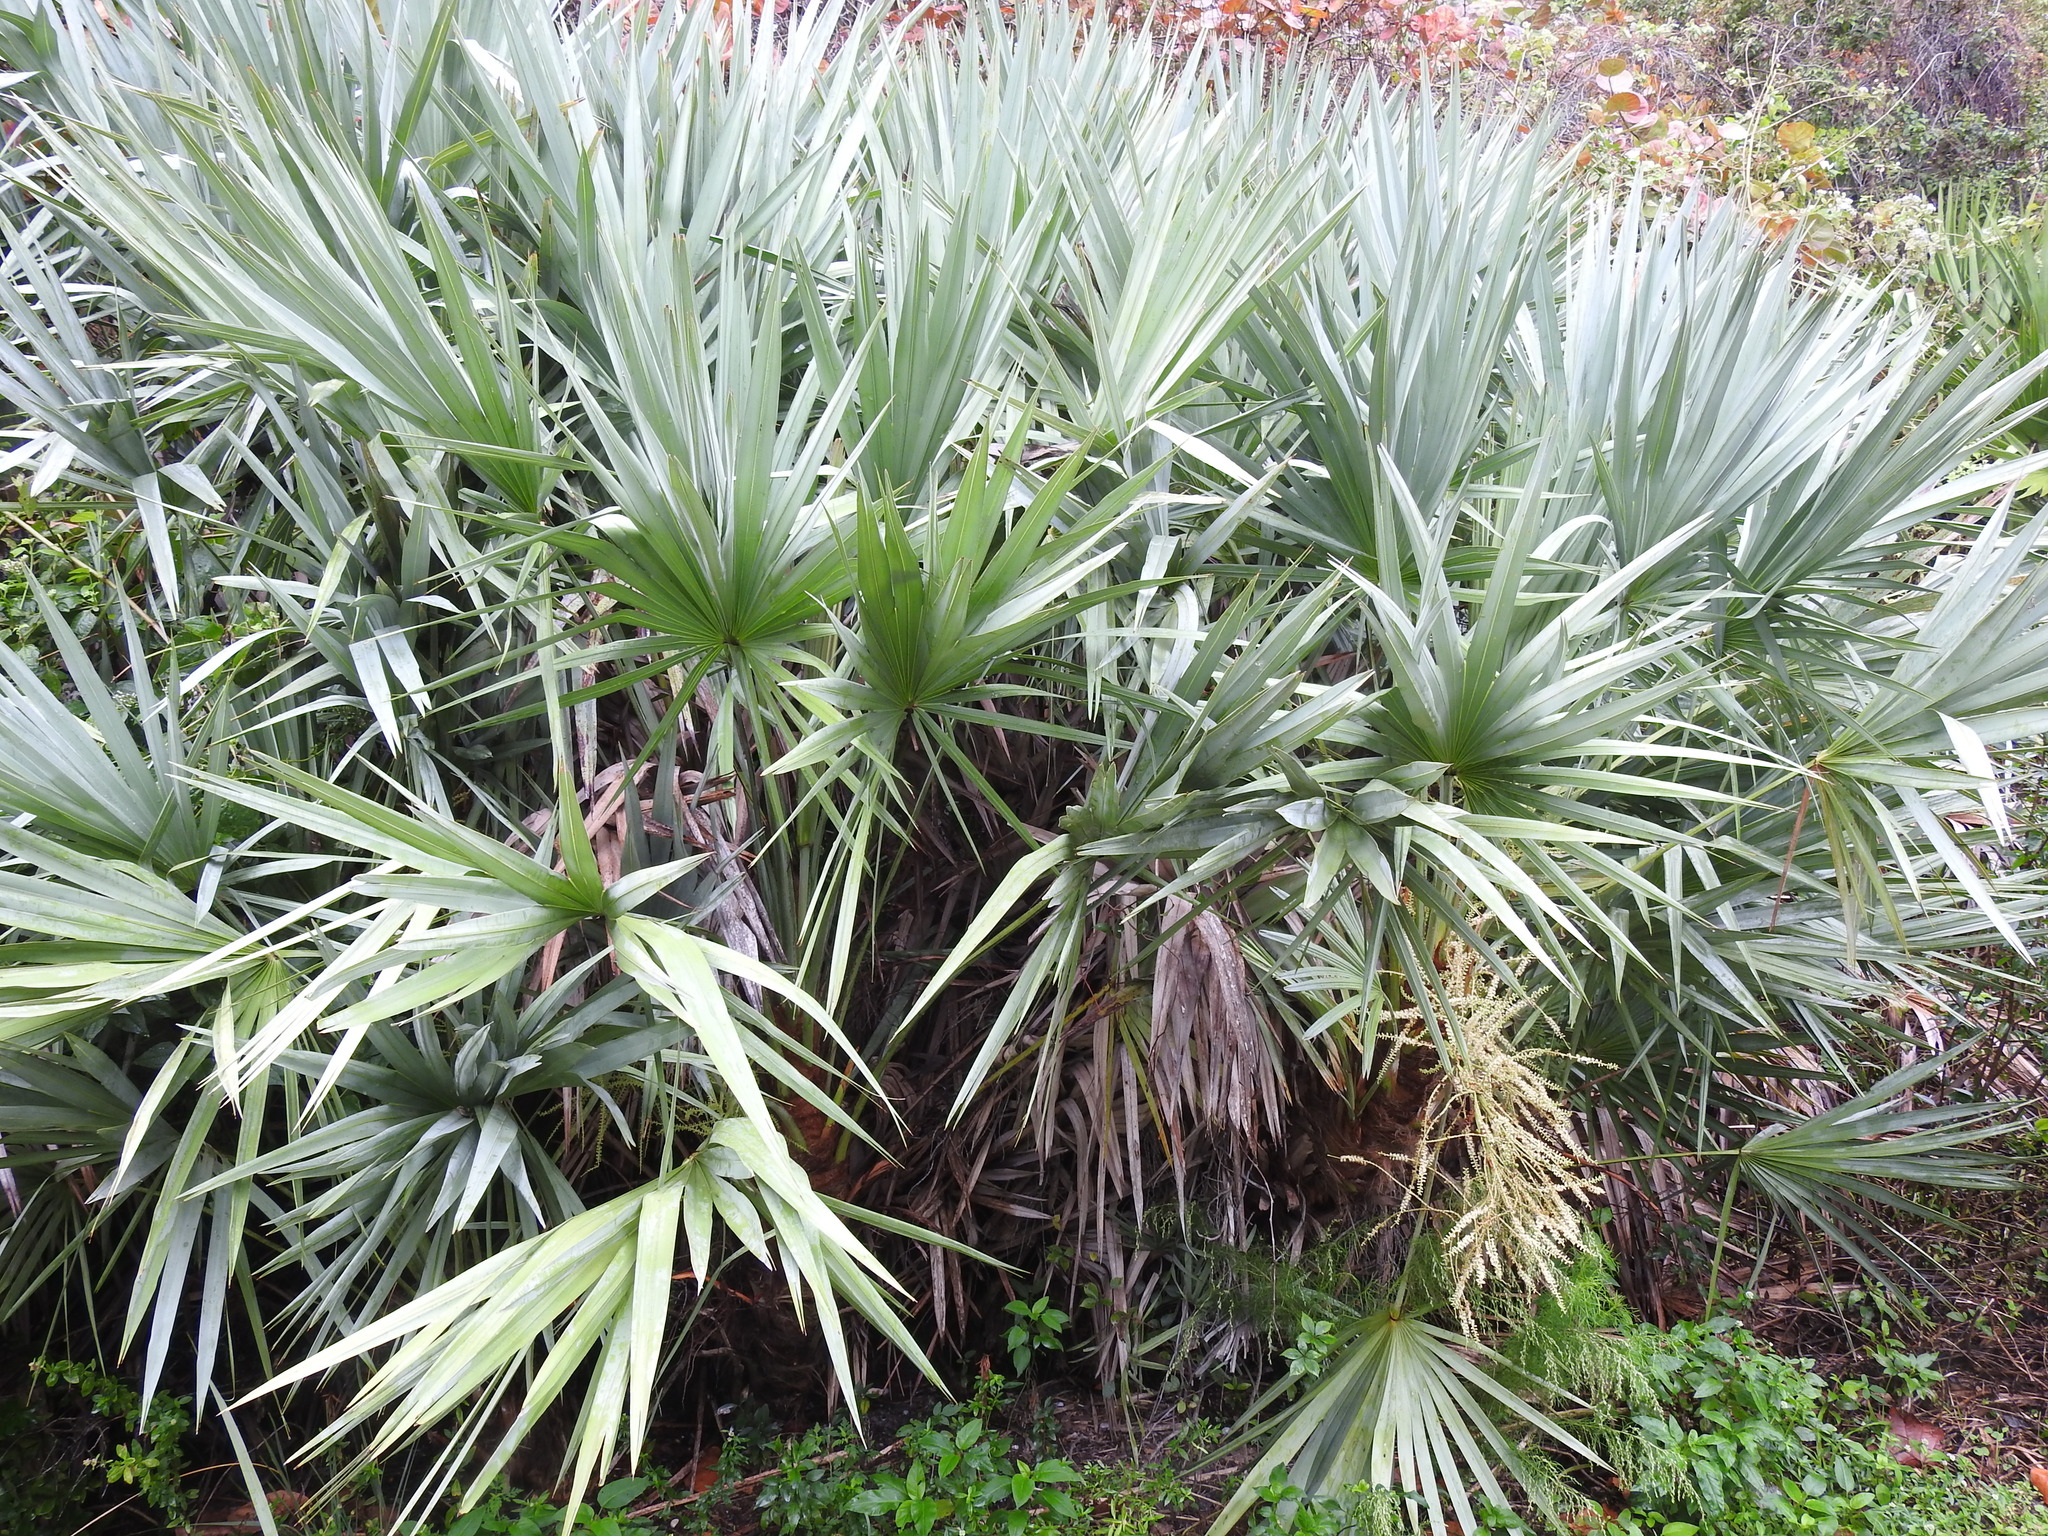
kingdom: Plantae
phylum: Tracheophyta
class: Liliopsida
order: Arecales
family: Arecaceae
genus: Serenoa
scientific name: Serenoa repens
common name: Saw-palmetto
